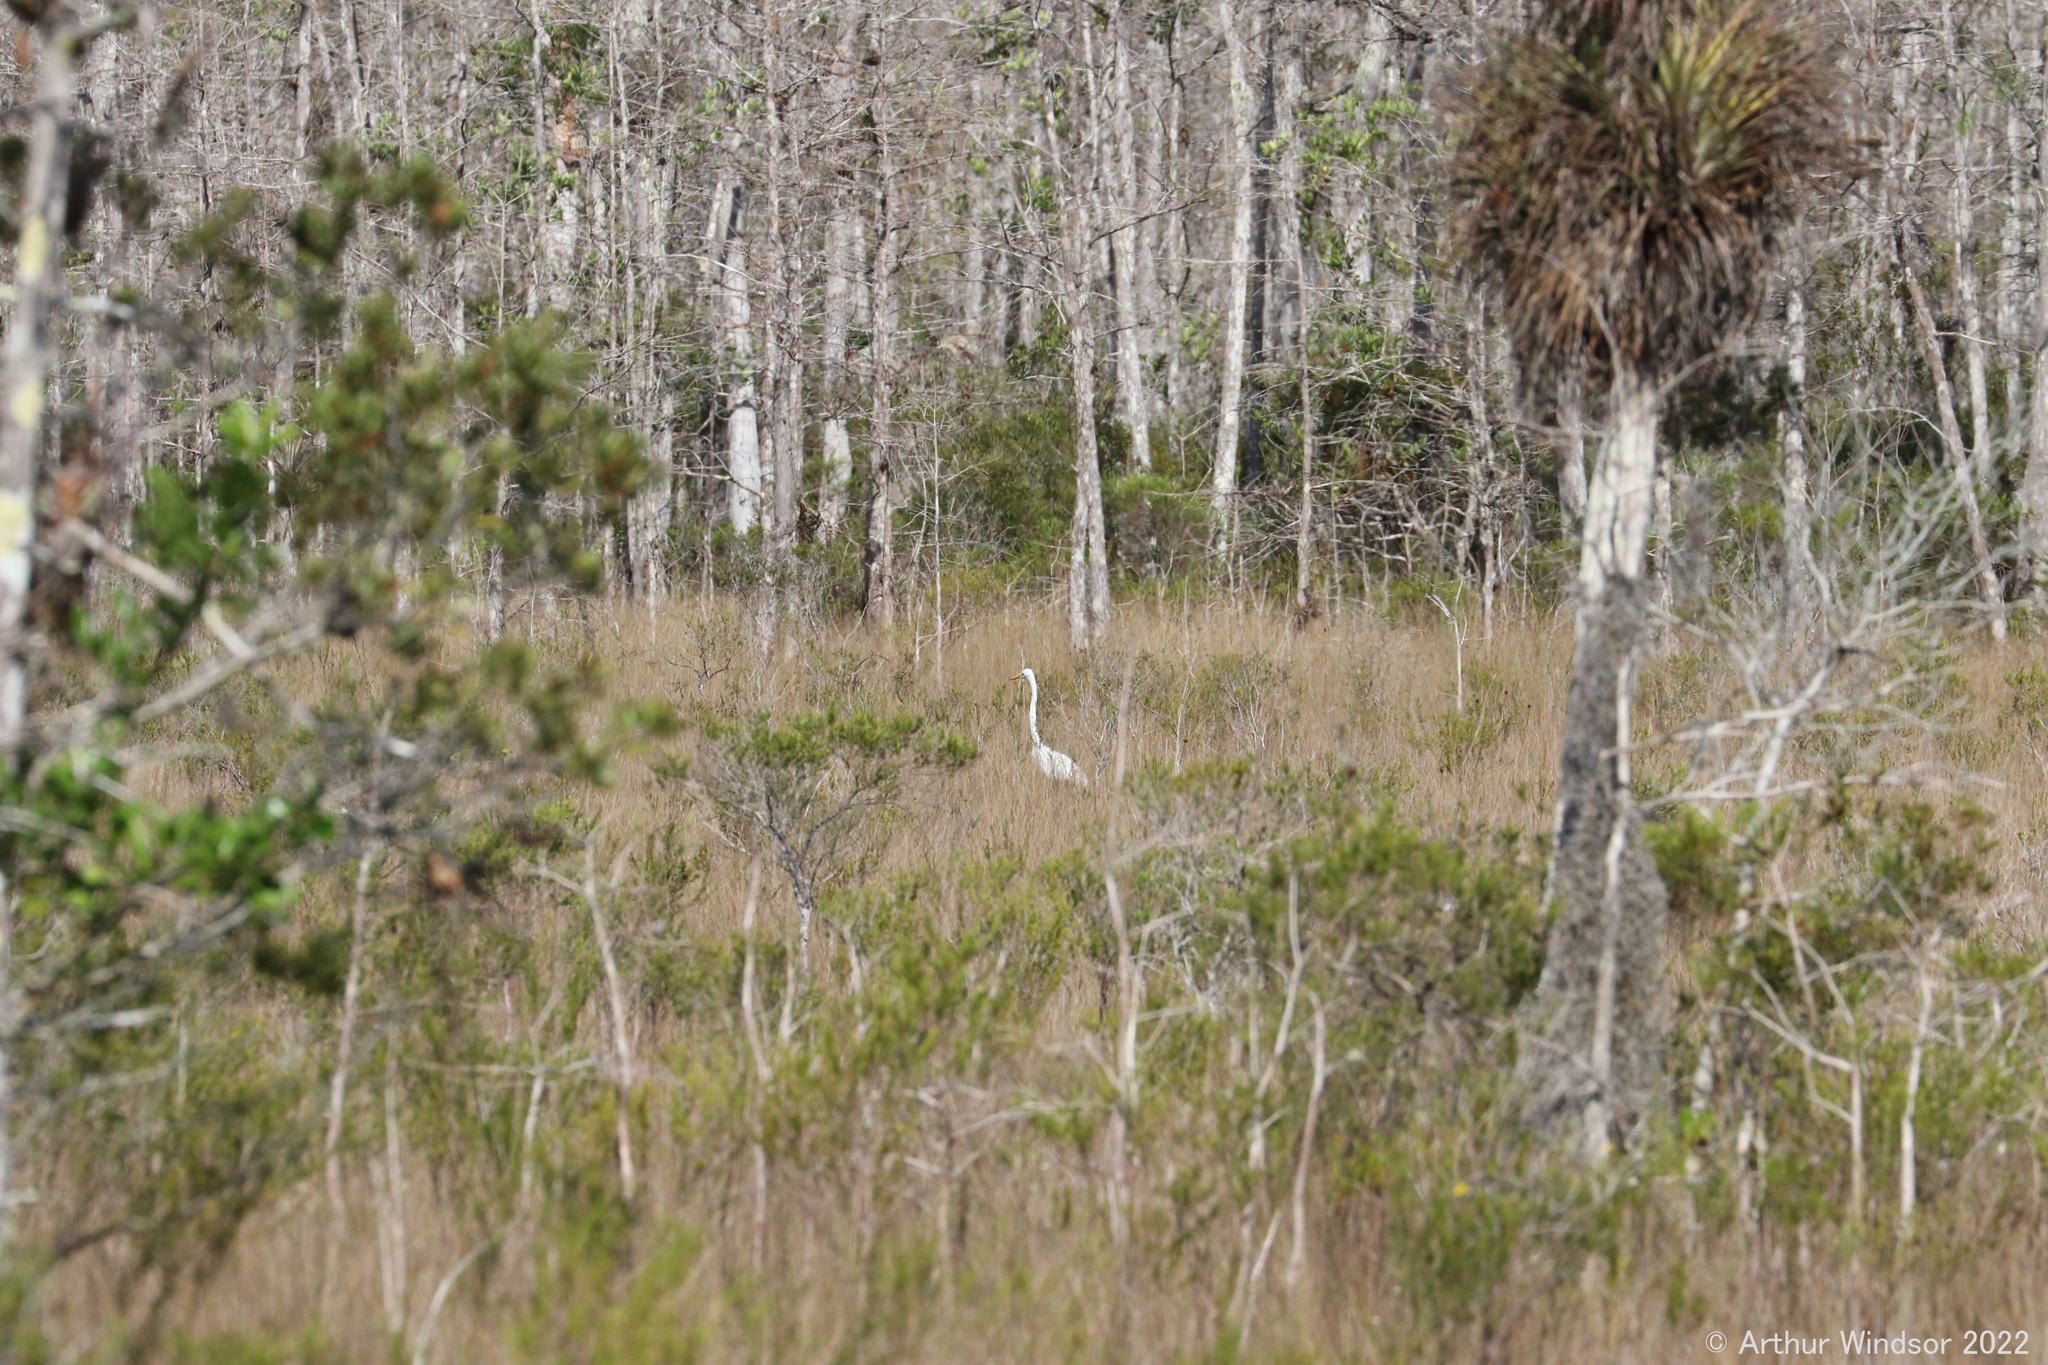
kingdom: Animalia
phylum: Chordata
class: Aves
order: Pelecaniformes
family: Ardeidae
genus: Ardea
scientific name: Ardea alba
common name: Great egret
